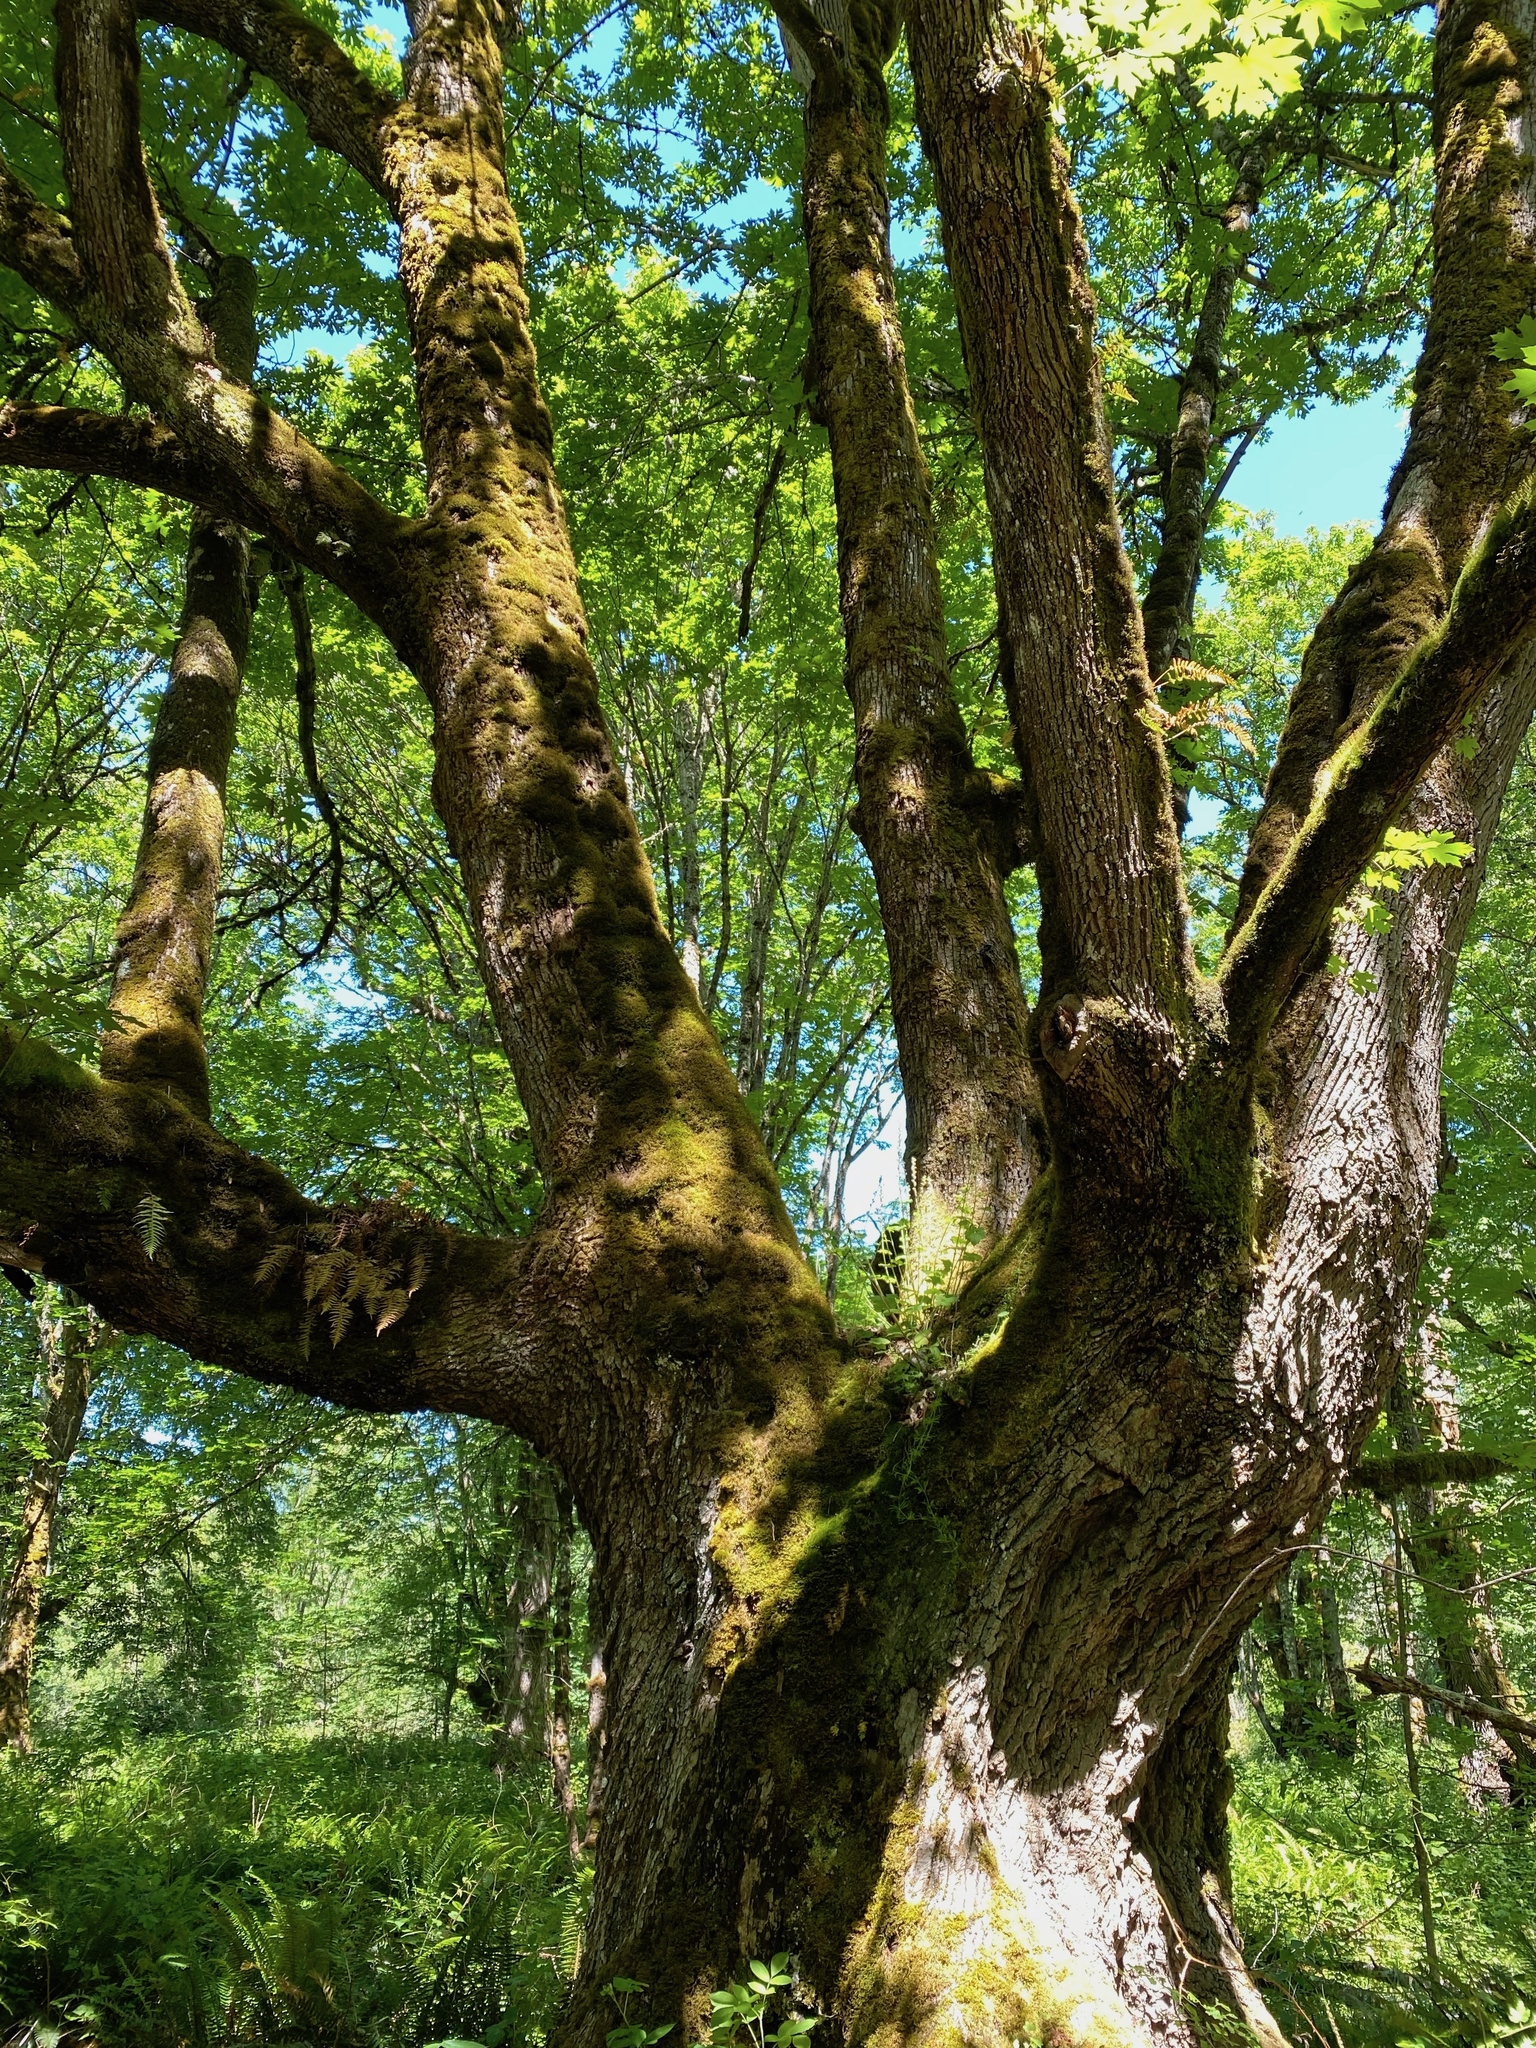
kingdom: Plantae
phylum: Tracheophyta
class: Magnoliopsida
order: Sapindales
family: Sapindaceae
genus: Acer
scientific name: Acer macrophyllum
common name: Oregon maple
